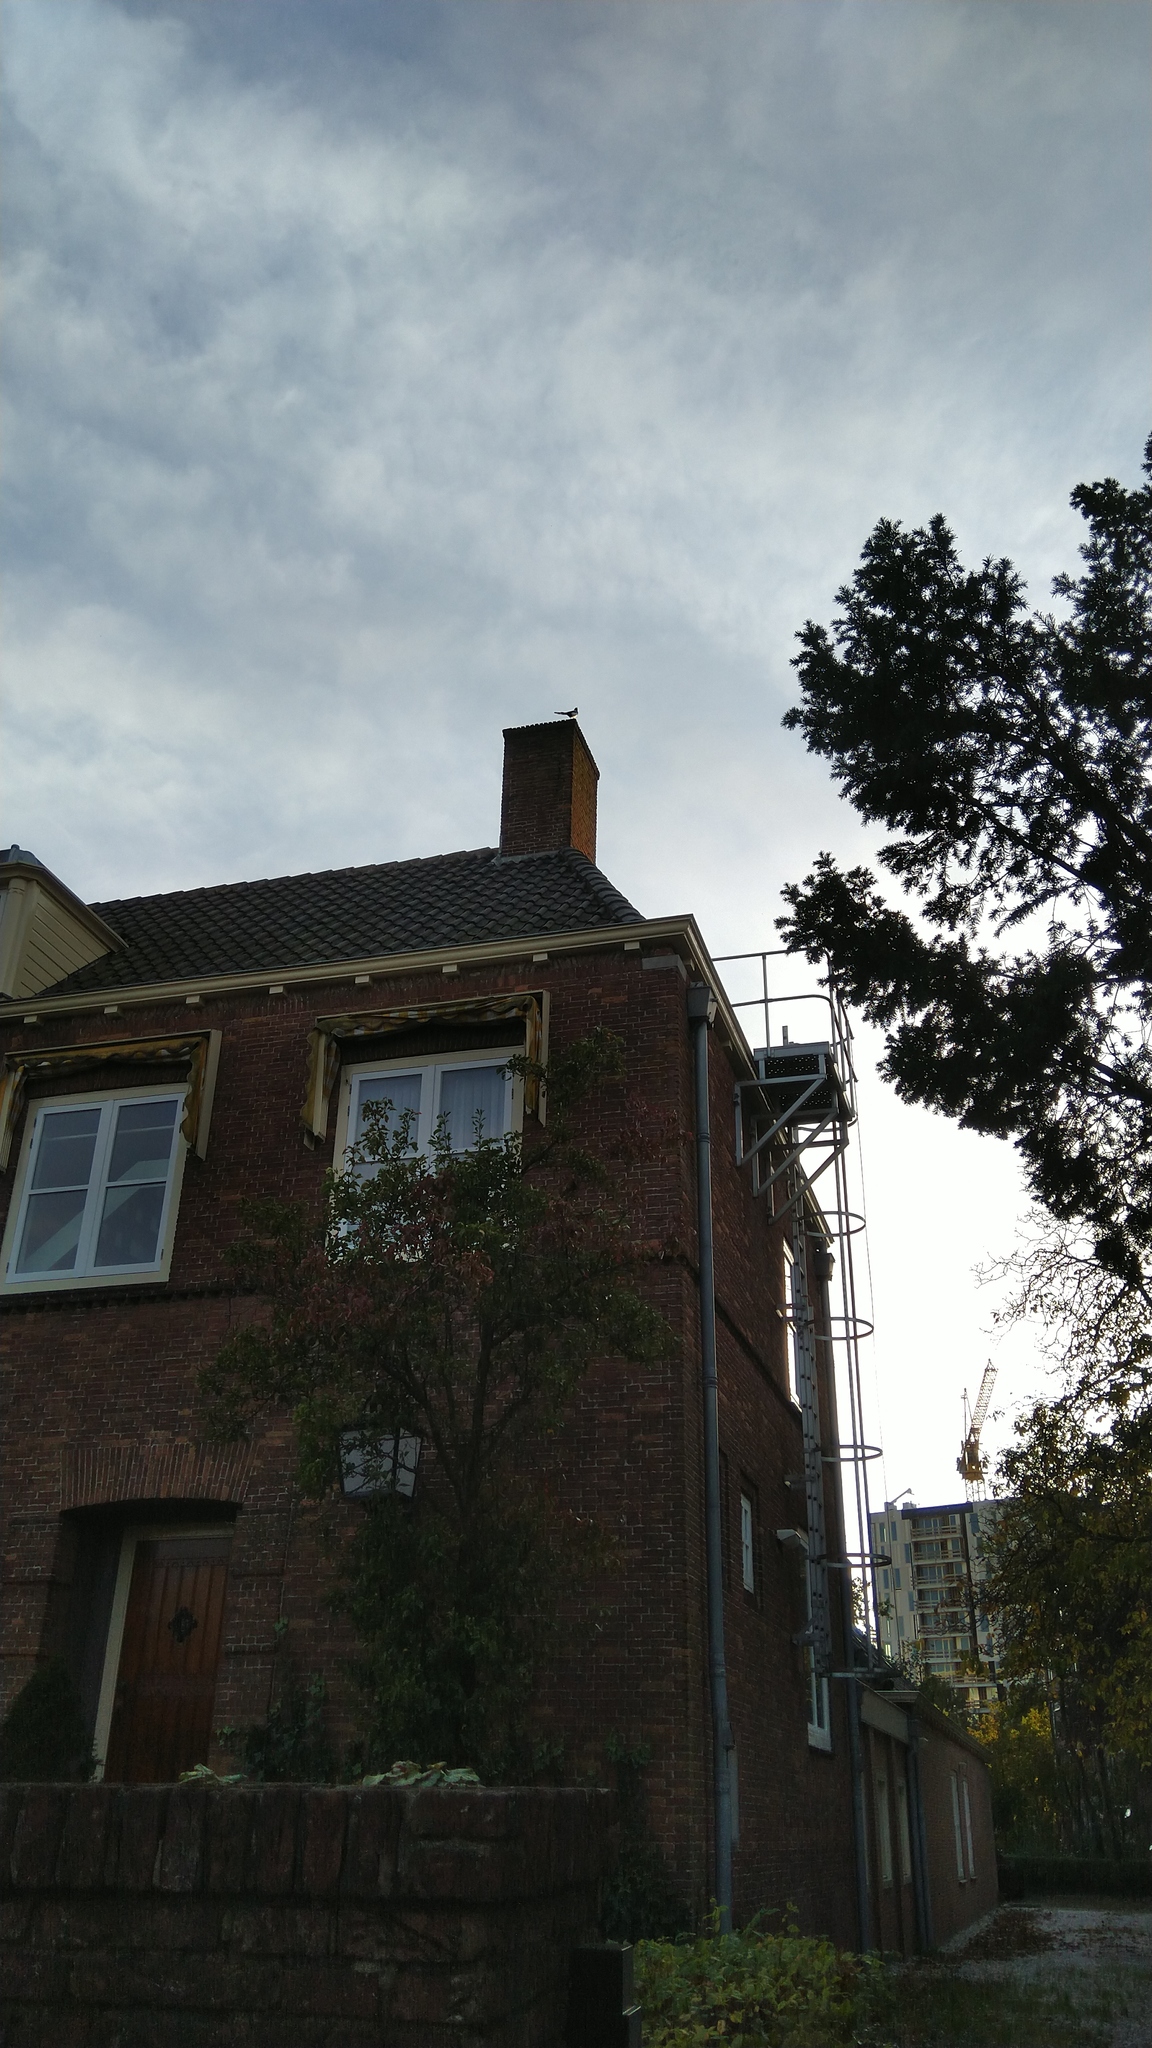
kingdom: Animalia
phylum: Chordata
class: Aves
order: Passeriformes
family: Corvidae
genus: Pica
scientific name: Pica pica
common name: Eurasian magpie
